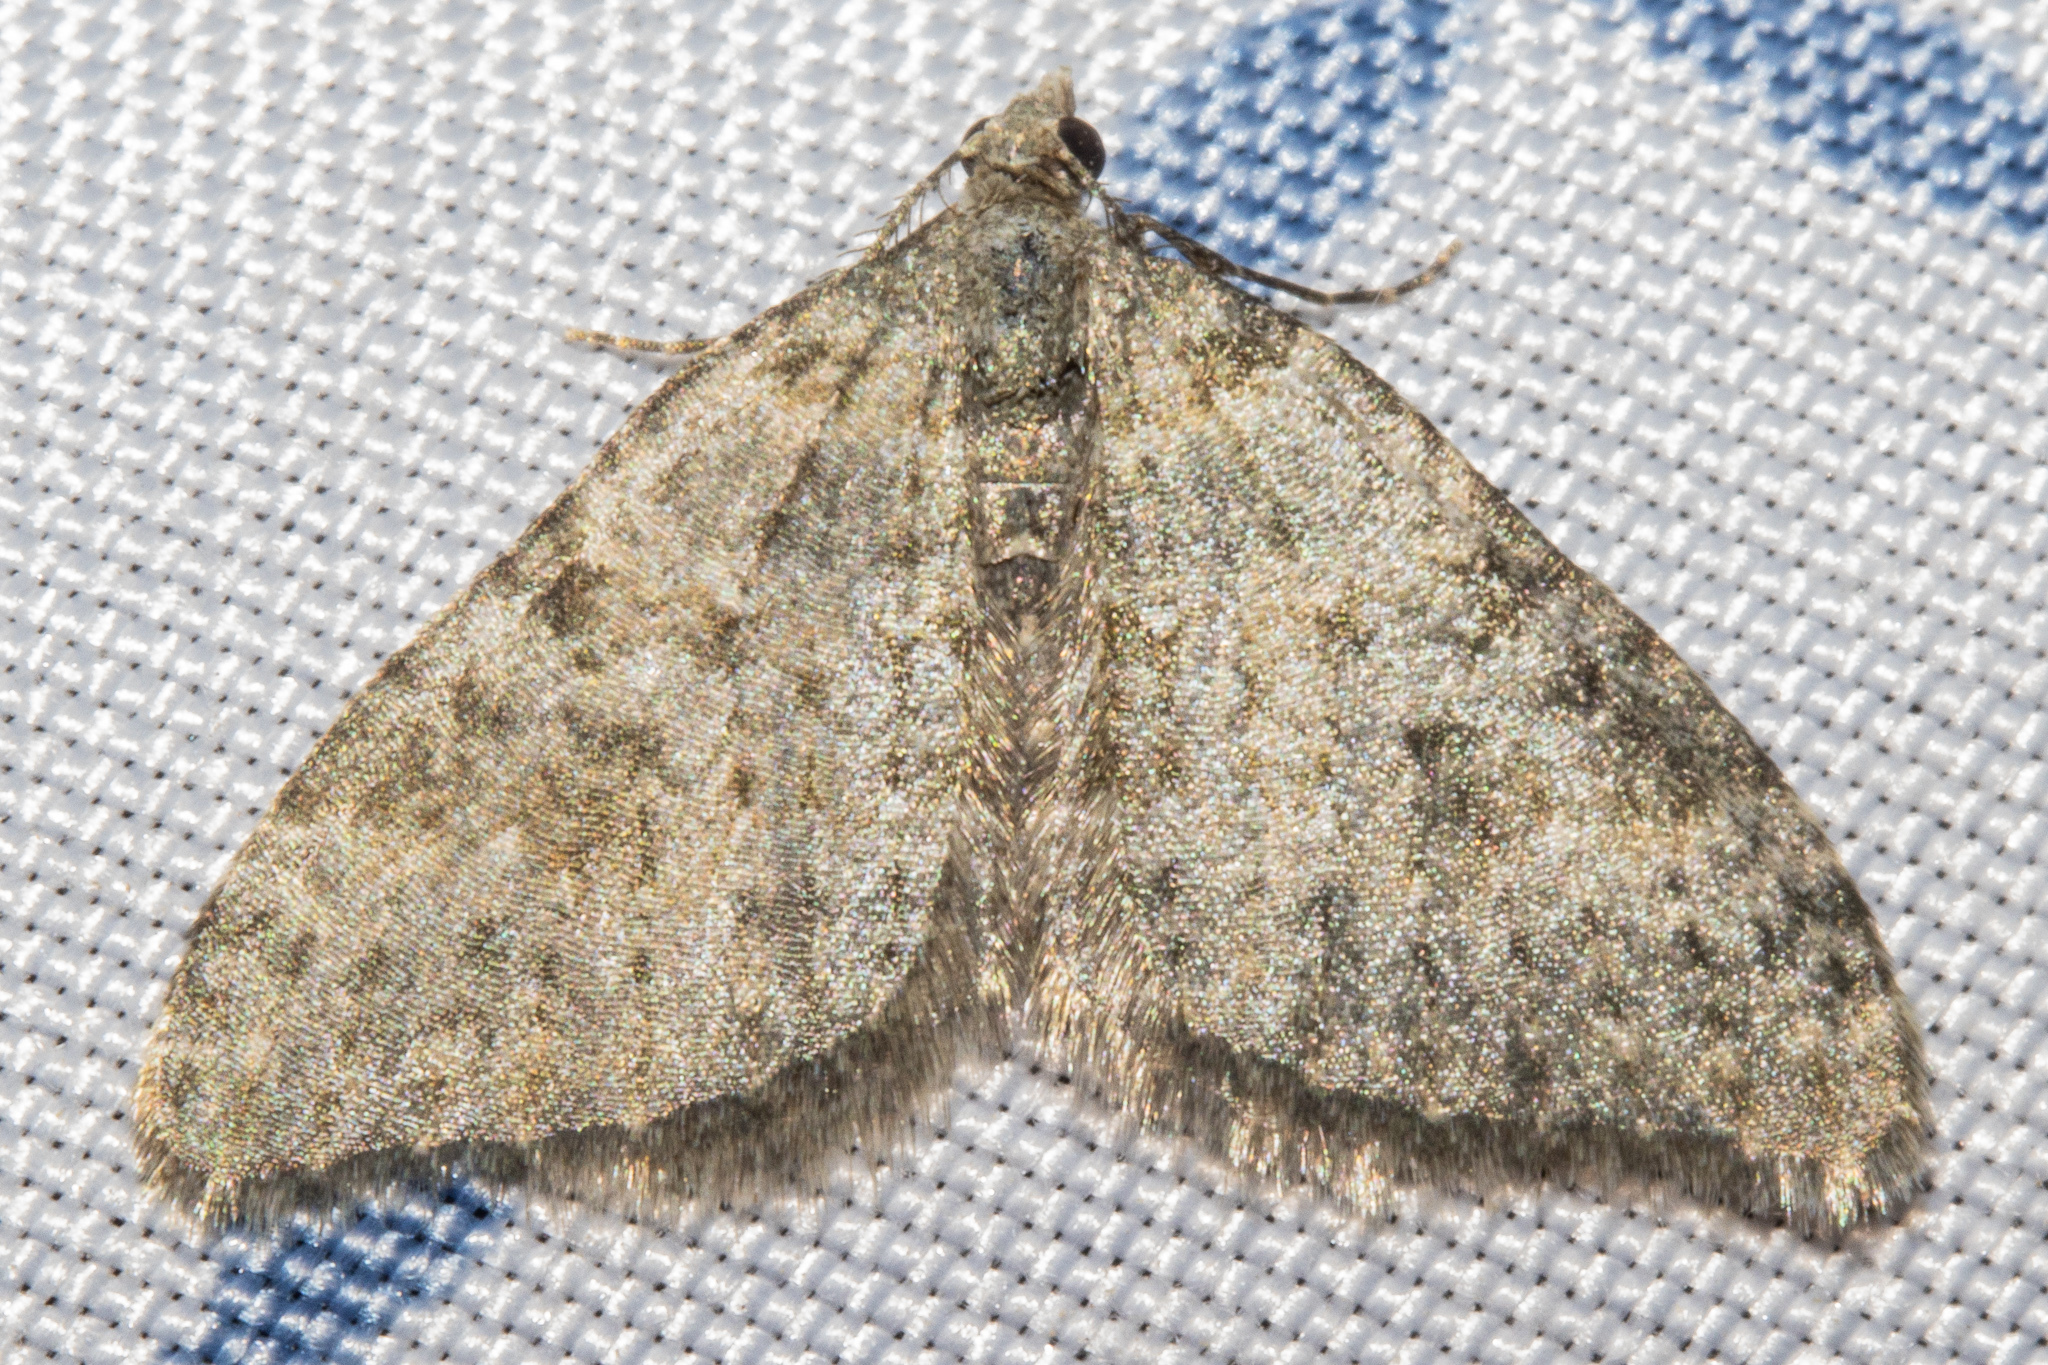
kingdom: Animalia
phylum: Arthropoda
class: Insecta
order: Lepidoptera
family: Geometridae
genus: Helastia
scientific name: Helastia corcularia
